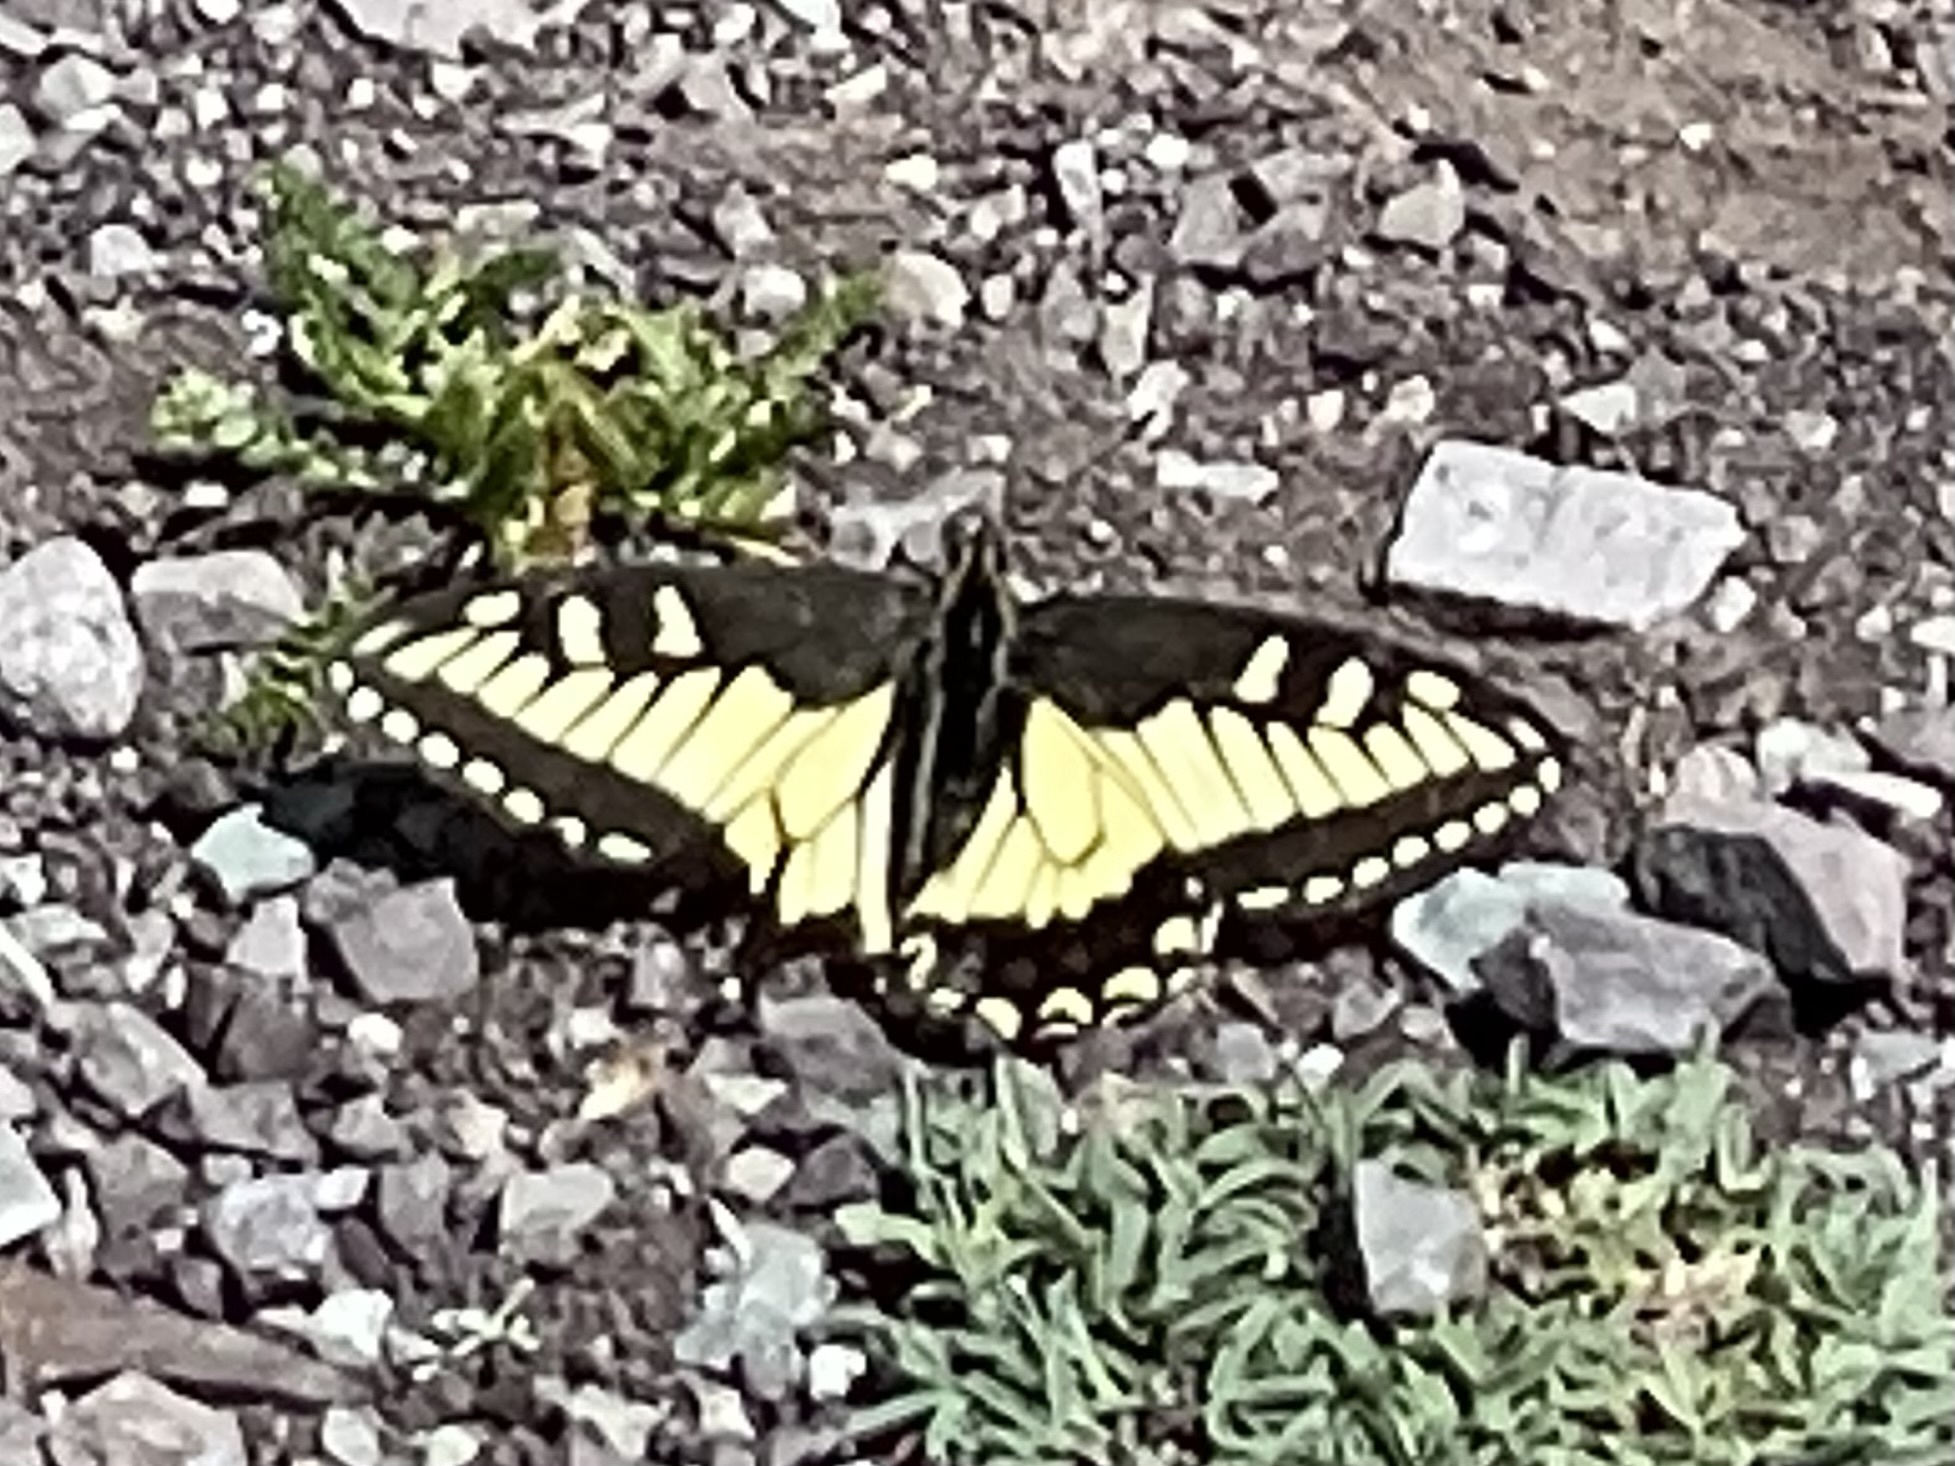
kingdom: Animalia
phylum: Arthropoda
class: Insecta
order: Lepidoptera
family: Papilionidae
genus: Papilio
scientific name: Papilio zelicaon
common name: Anise swallowtail
